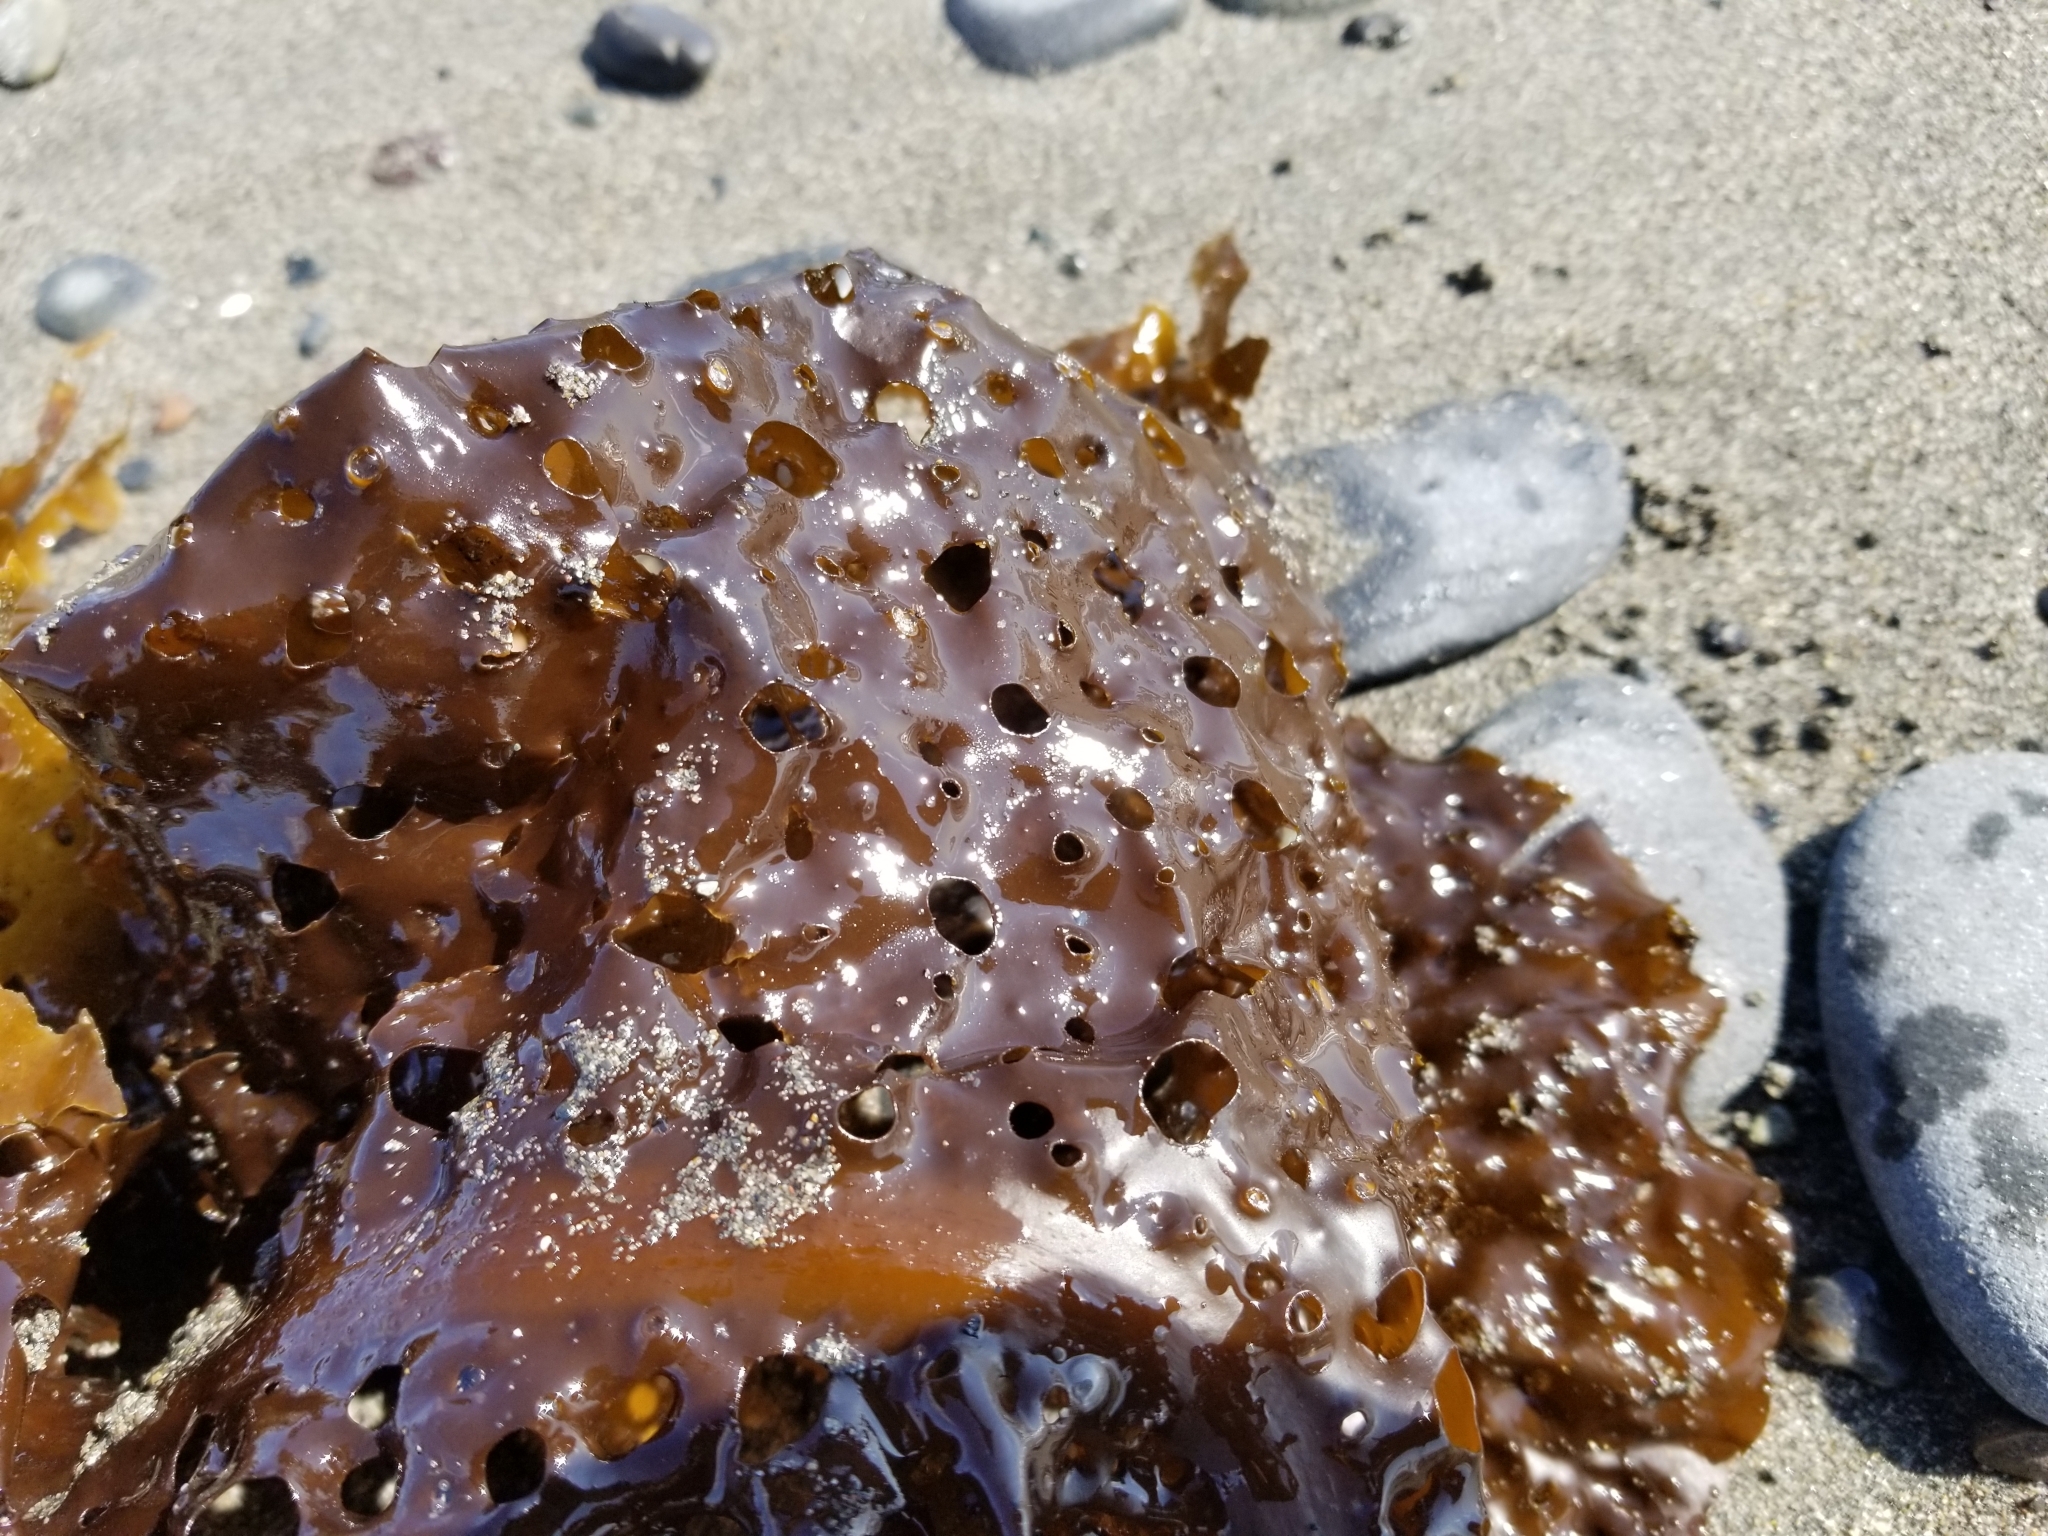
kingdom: Chromista
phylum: Ochrophyta
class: Phaeophyceae
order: Laminariales
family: Costariaceae
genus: Agarum
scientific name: Agarum clathratum
